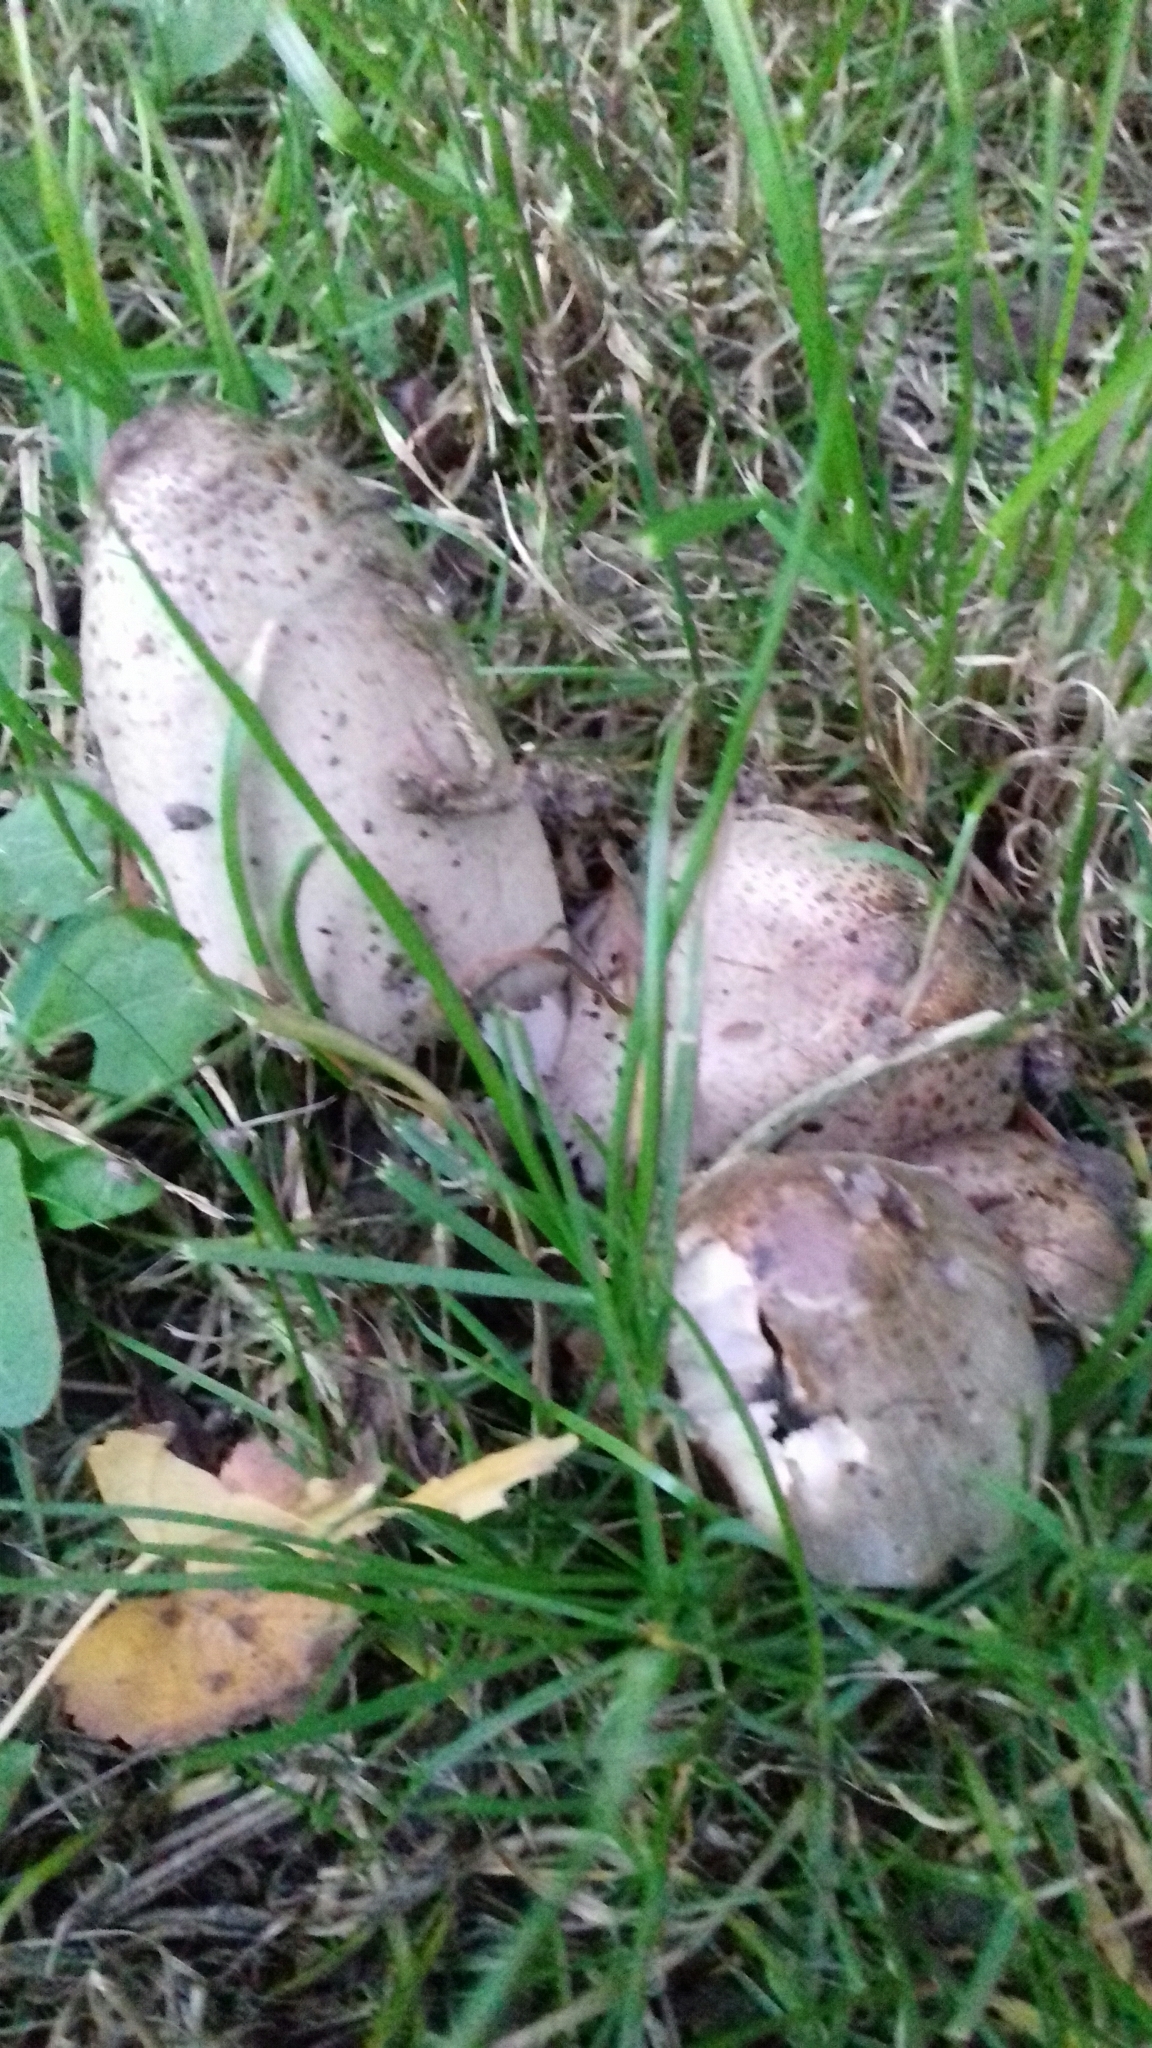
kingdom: Fungi
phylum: Basidiomycota
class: Agaricomycetes
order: Agaricales
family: Psathyrellaceae
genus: Coprinopsis
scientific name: Coprinopsis atramentaria
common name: Common ink-cap
